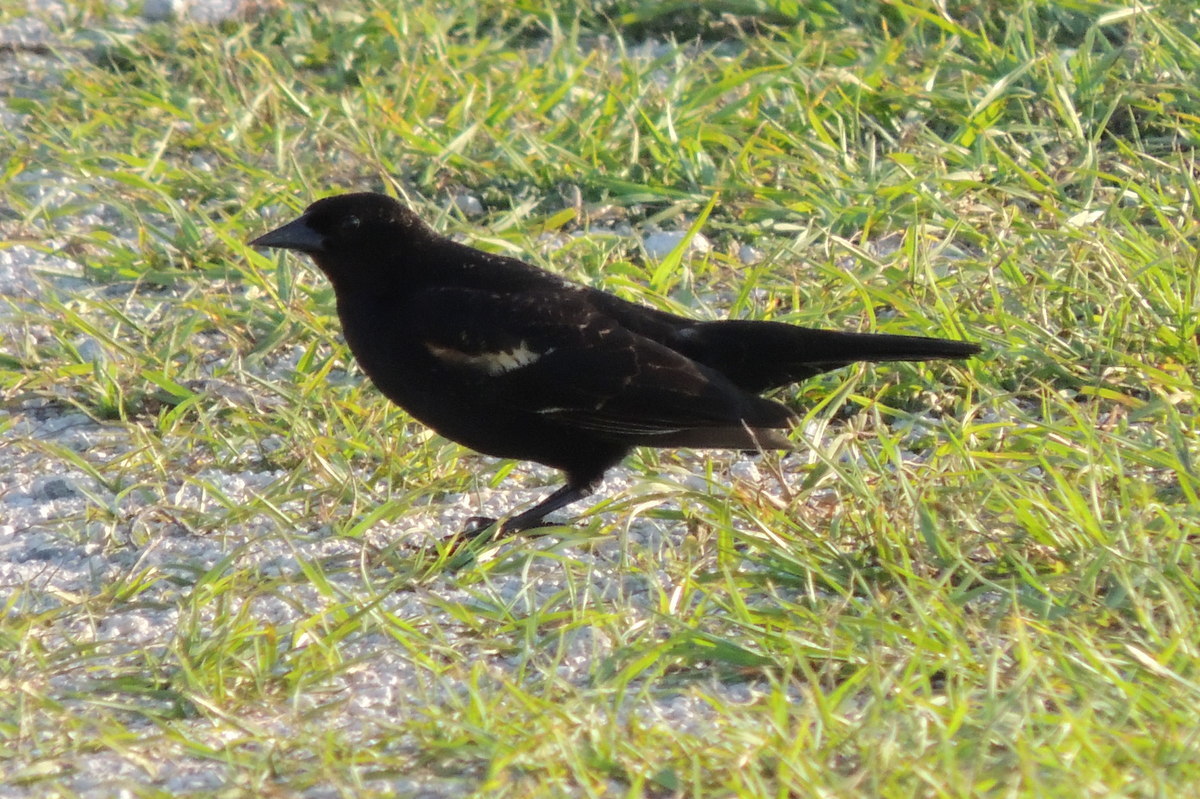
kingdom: Animalia
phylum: Chordata
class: Aves
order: Passeriformes
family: Icteridae
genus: Agelaius
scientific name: Agelaius phoeniceus
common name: Red-winged blackbird
